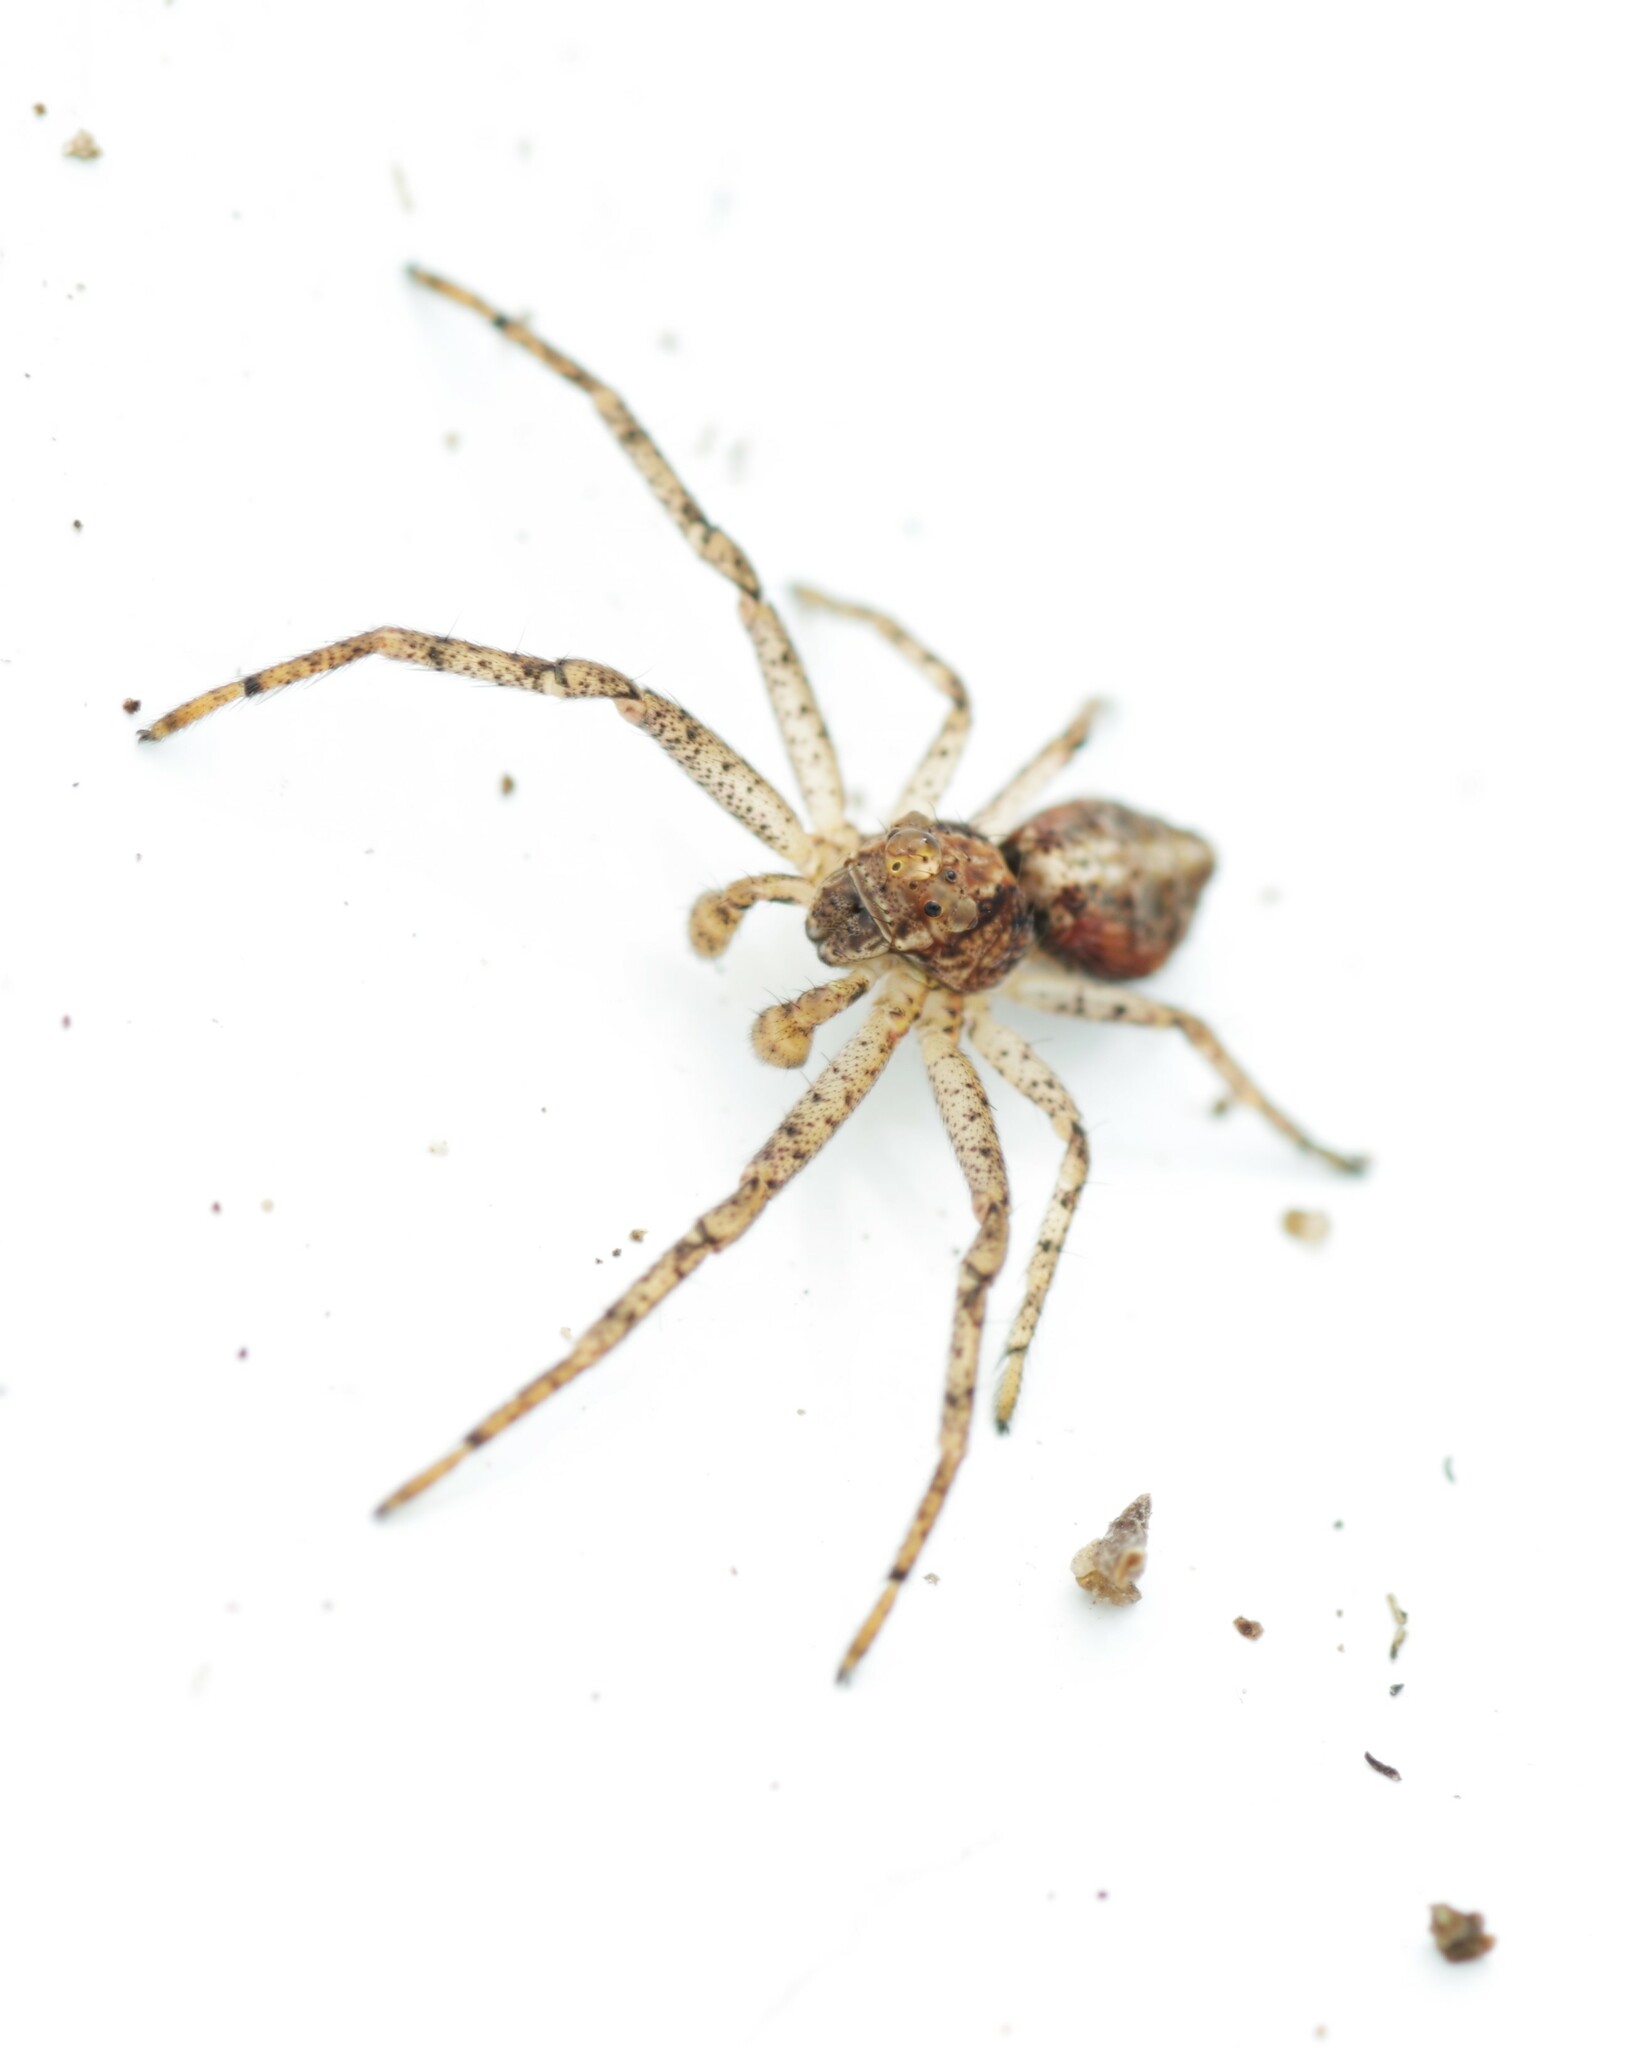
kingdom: Animalia
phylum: Arthropoda
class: Arachnida
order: Araneae
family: Thomisidae
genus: Tmarus
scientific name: Tmarus
